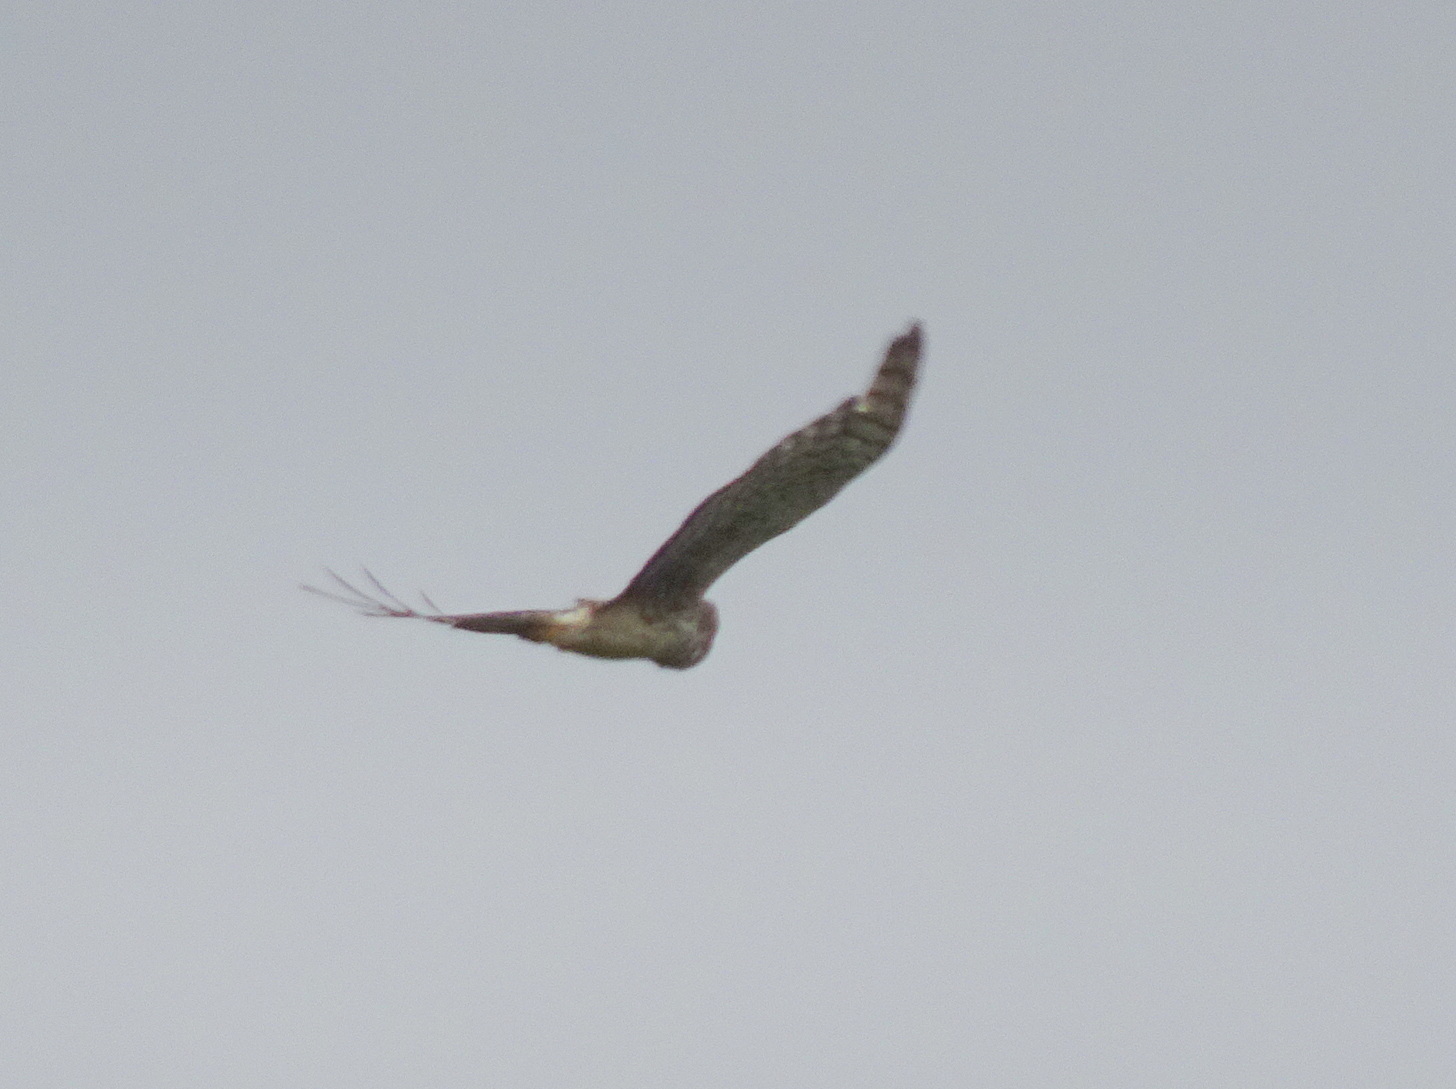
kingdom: Animalia
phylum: Chordata
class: Aves
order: Accipitriformes
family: Accipitridae
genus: Circus
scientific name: Circus cyaneus
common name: Hen harrier
